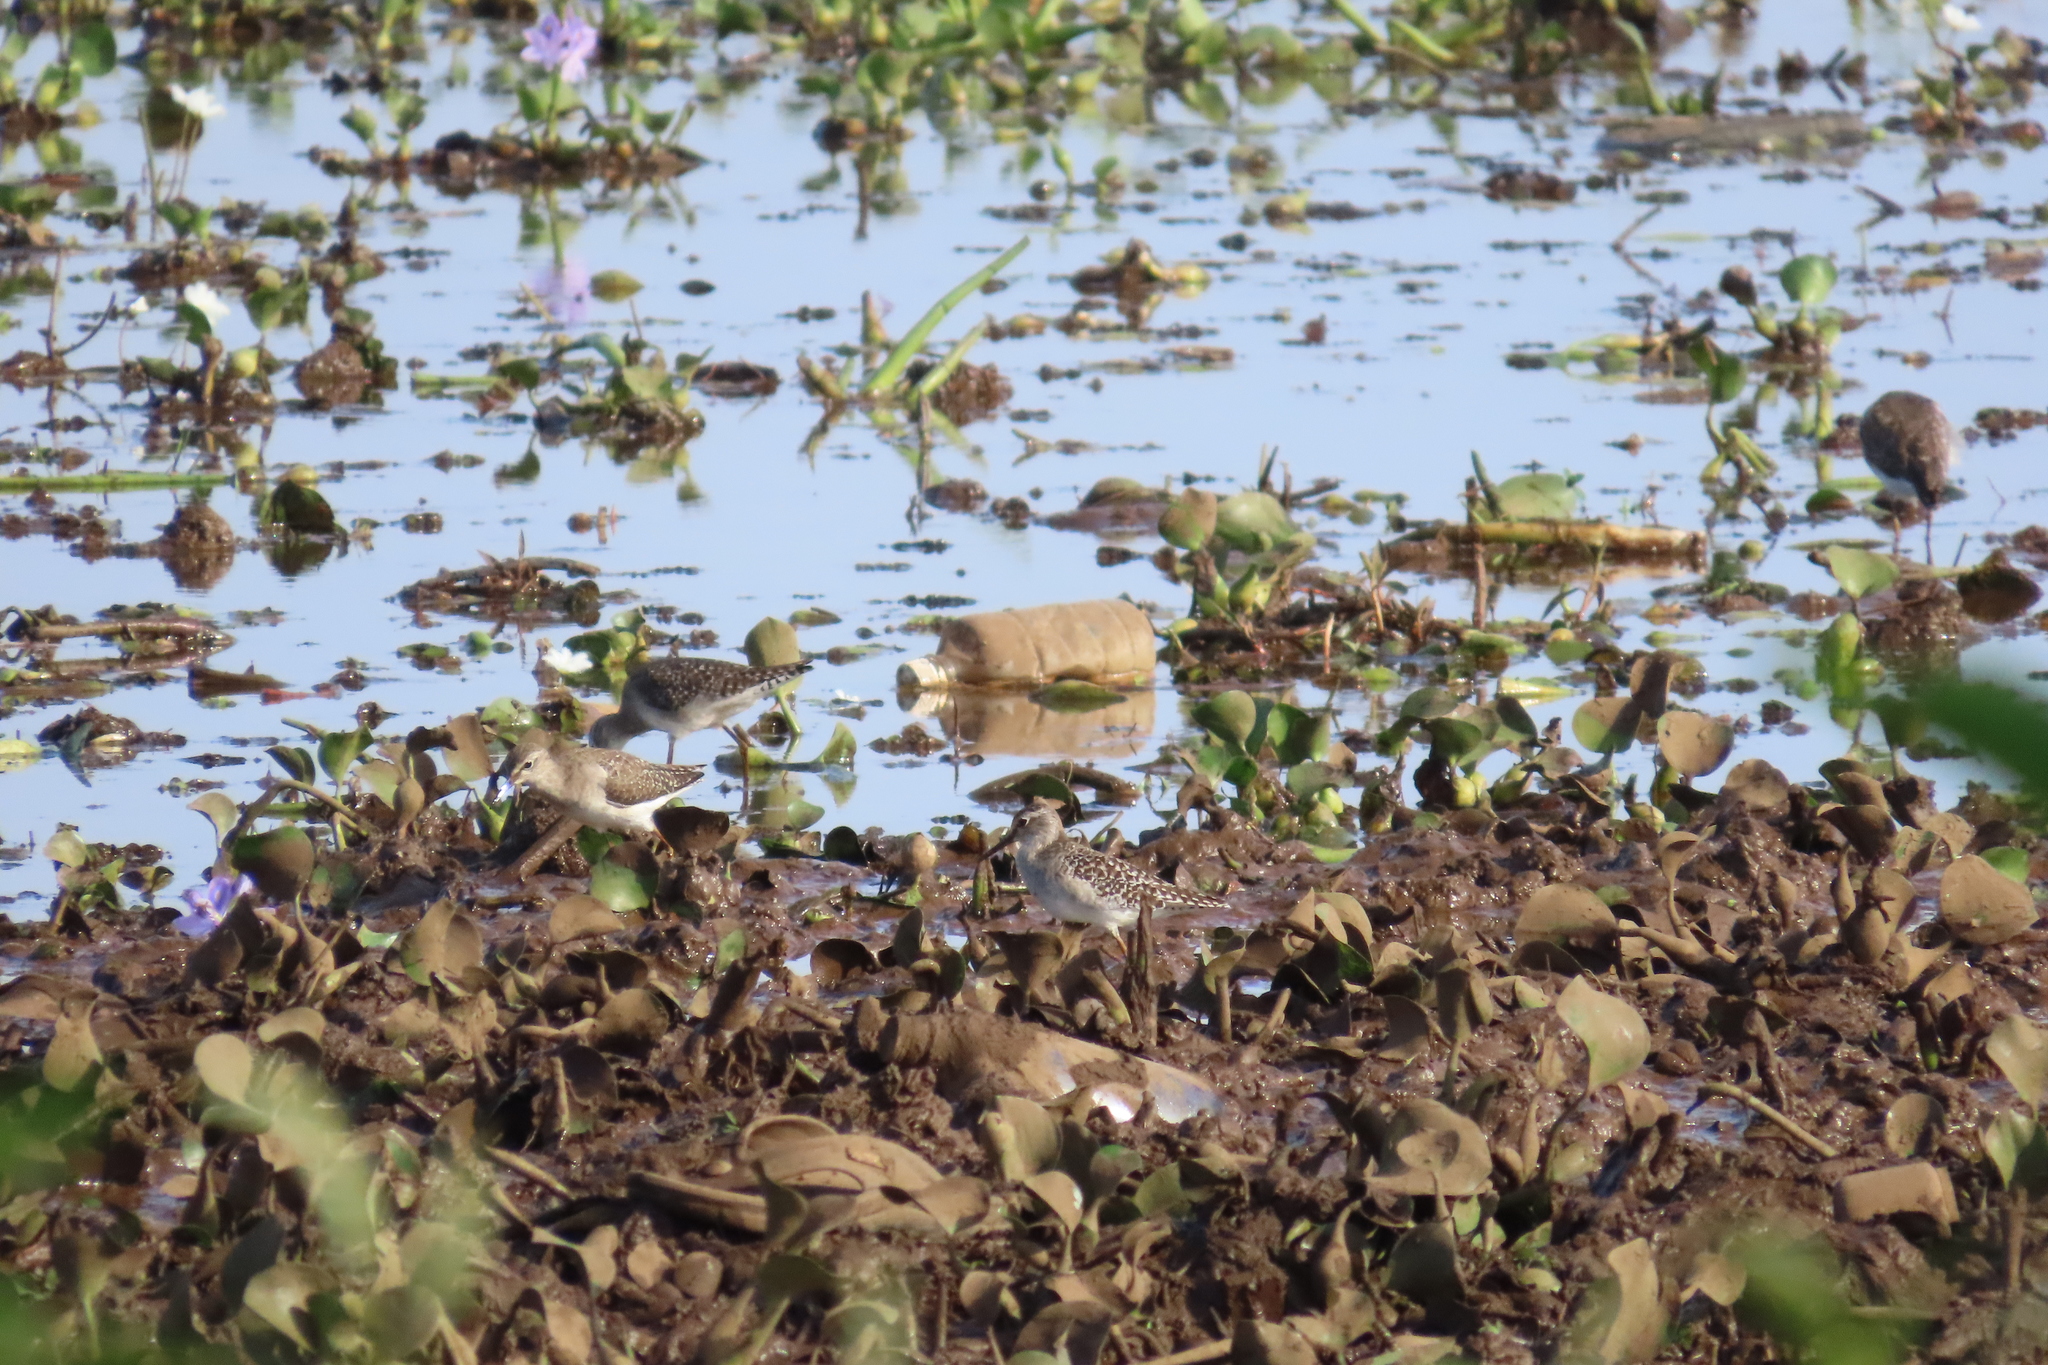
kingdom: Animalia
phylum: Chordata
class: Aves
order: Charadriiformes
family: Scolopacidae
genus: Tringa
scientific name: Tringa glareola
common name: Wood sandpiper
